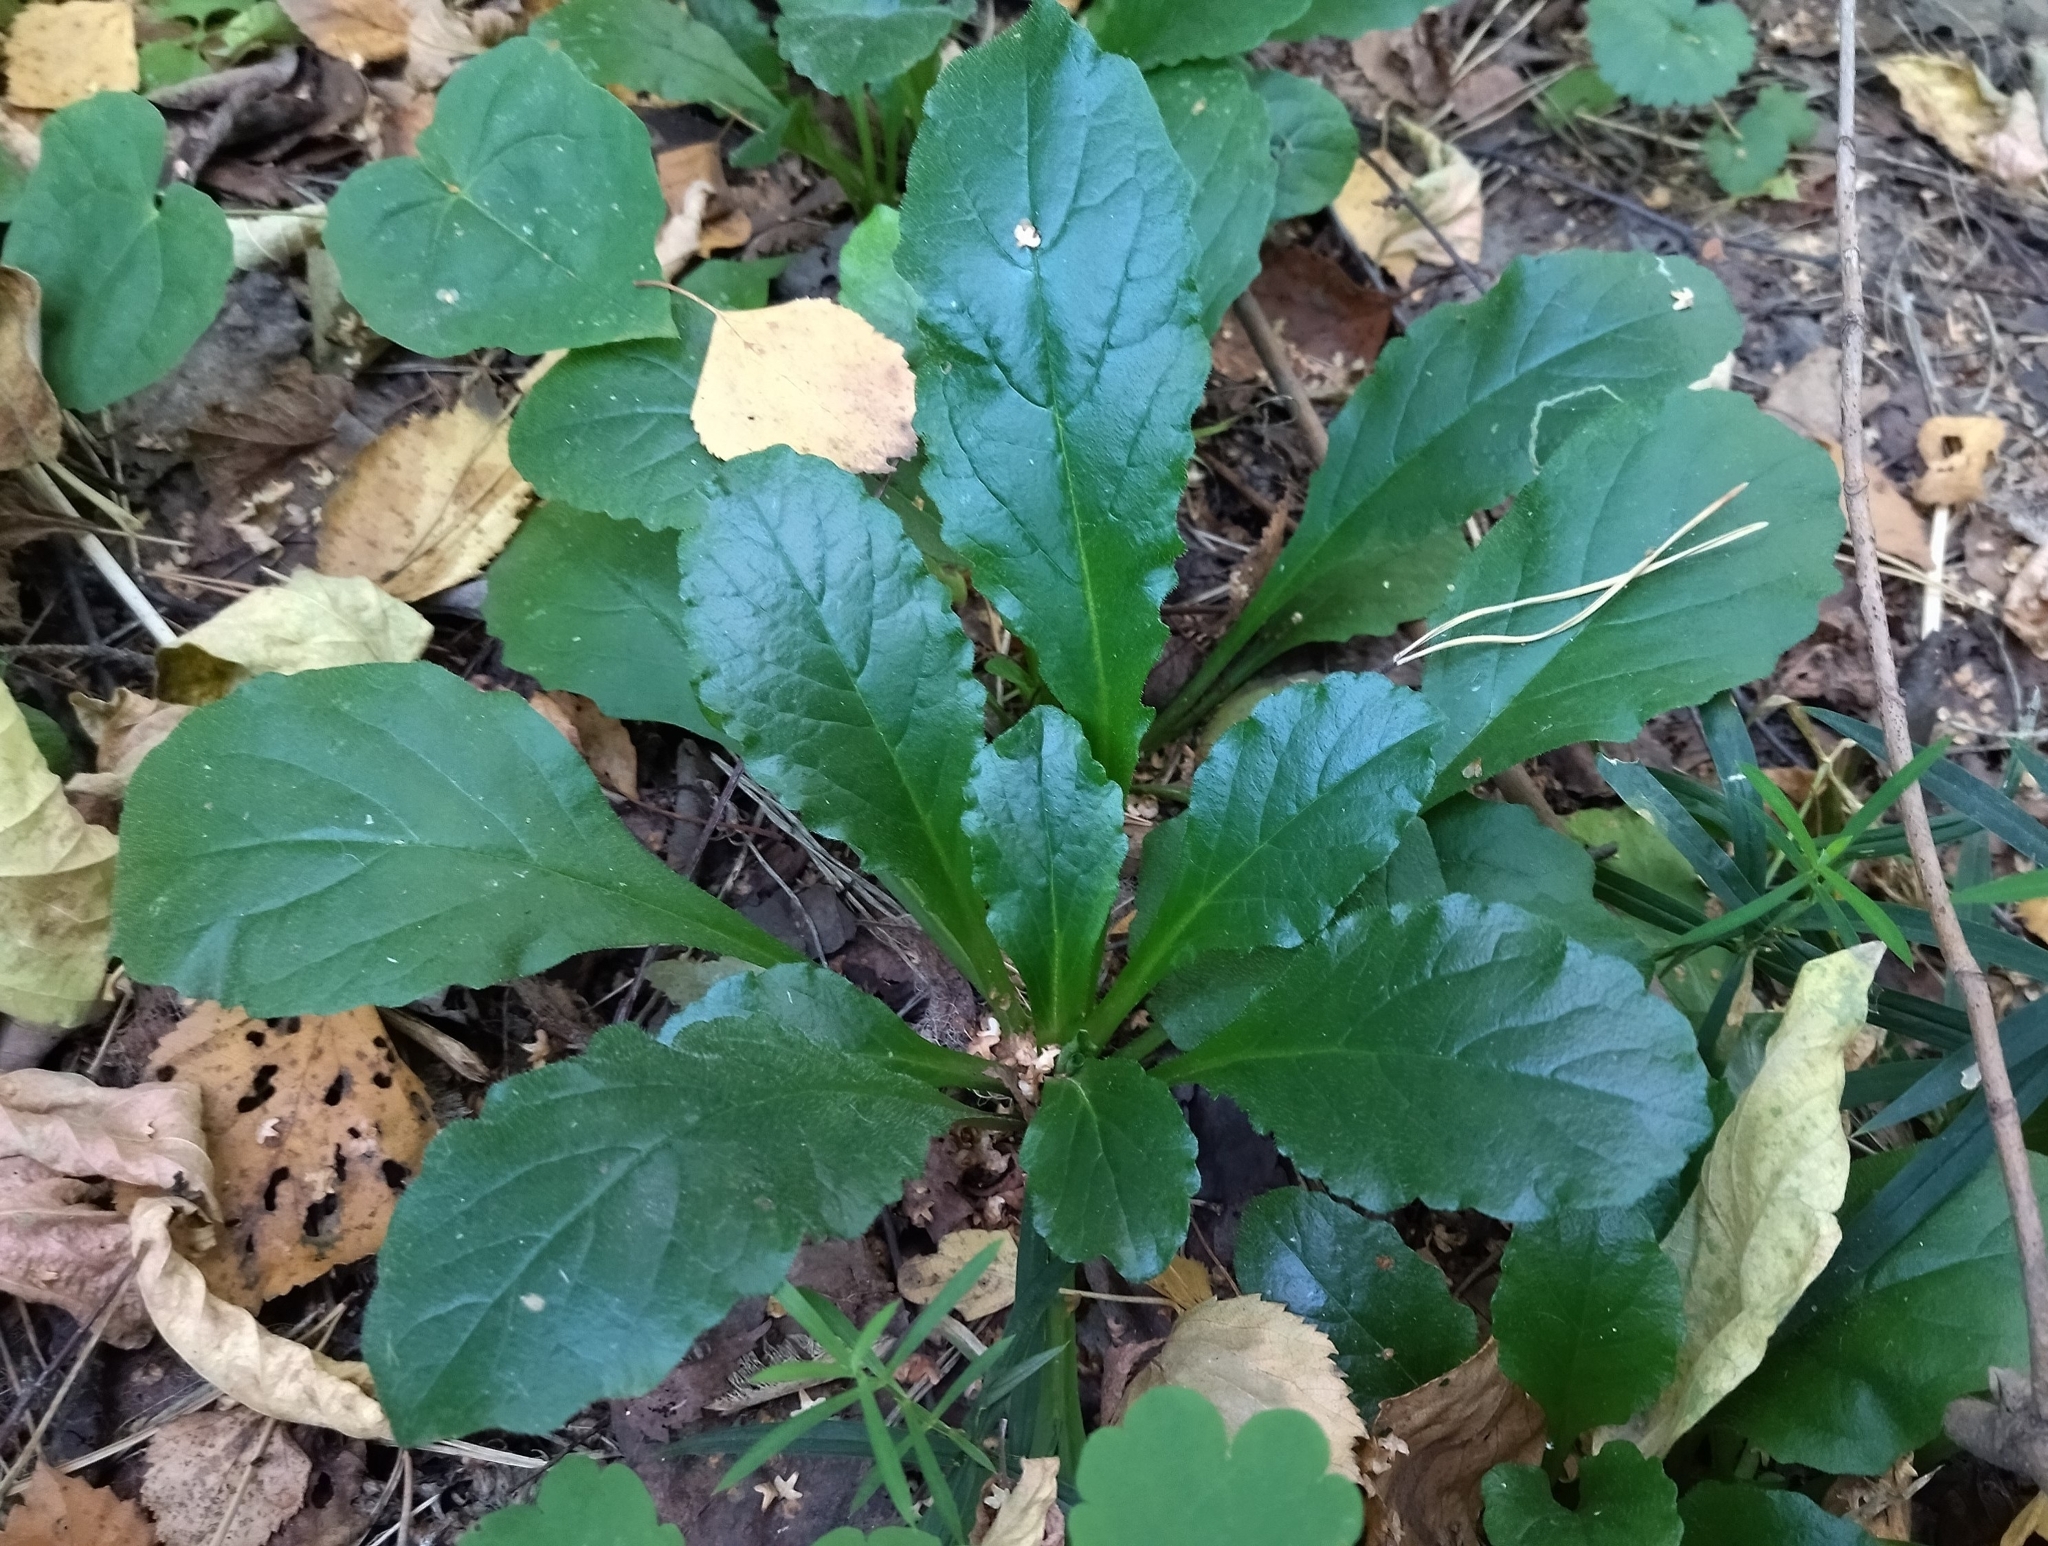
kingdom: Plantae
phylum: Tracheophyta
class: Magnoliopsida
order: Lamiales
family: Lamiaceae
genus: Ajuga
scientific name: Ajuga reptans
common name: Bugle
